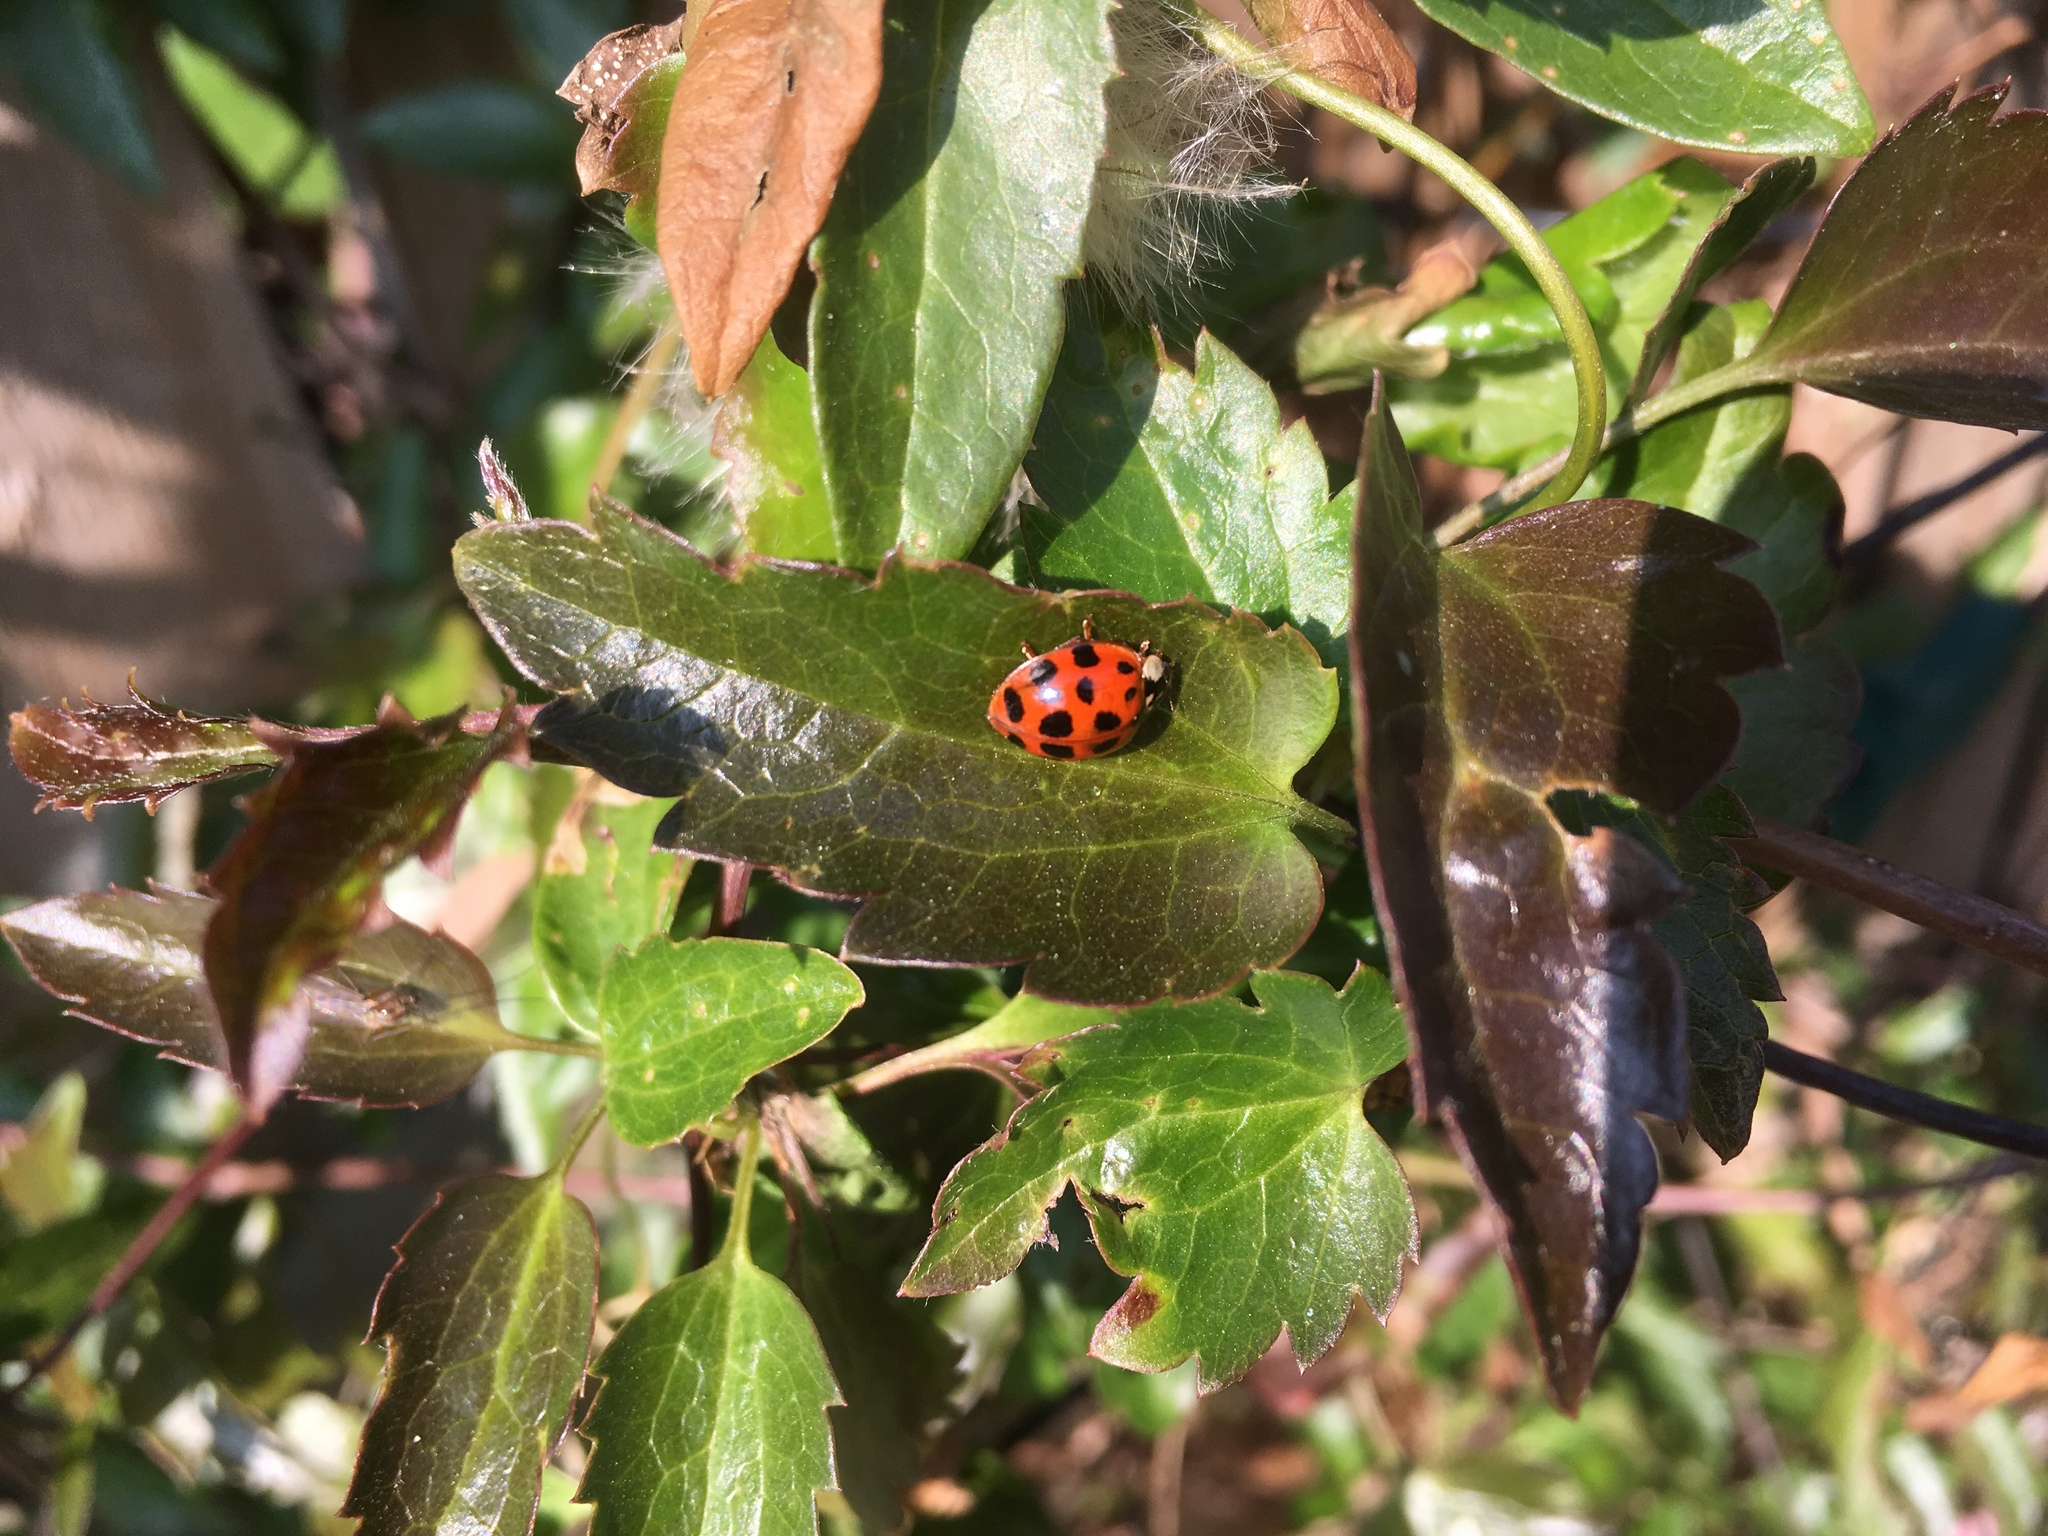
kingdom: Animalia
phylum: Arthropoda
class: Insecta
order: Coleoptera
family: Coccinellidae
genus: Harmonia
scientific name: Harmonia axyridis
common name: Harlequin ladybird
